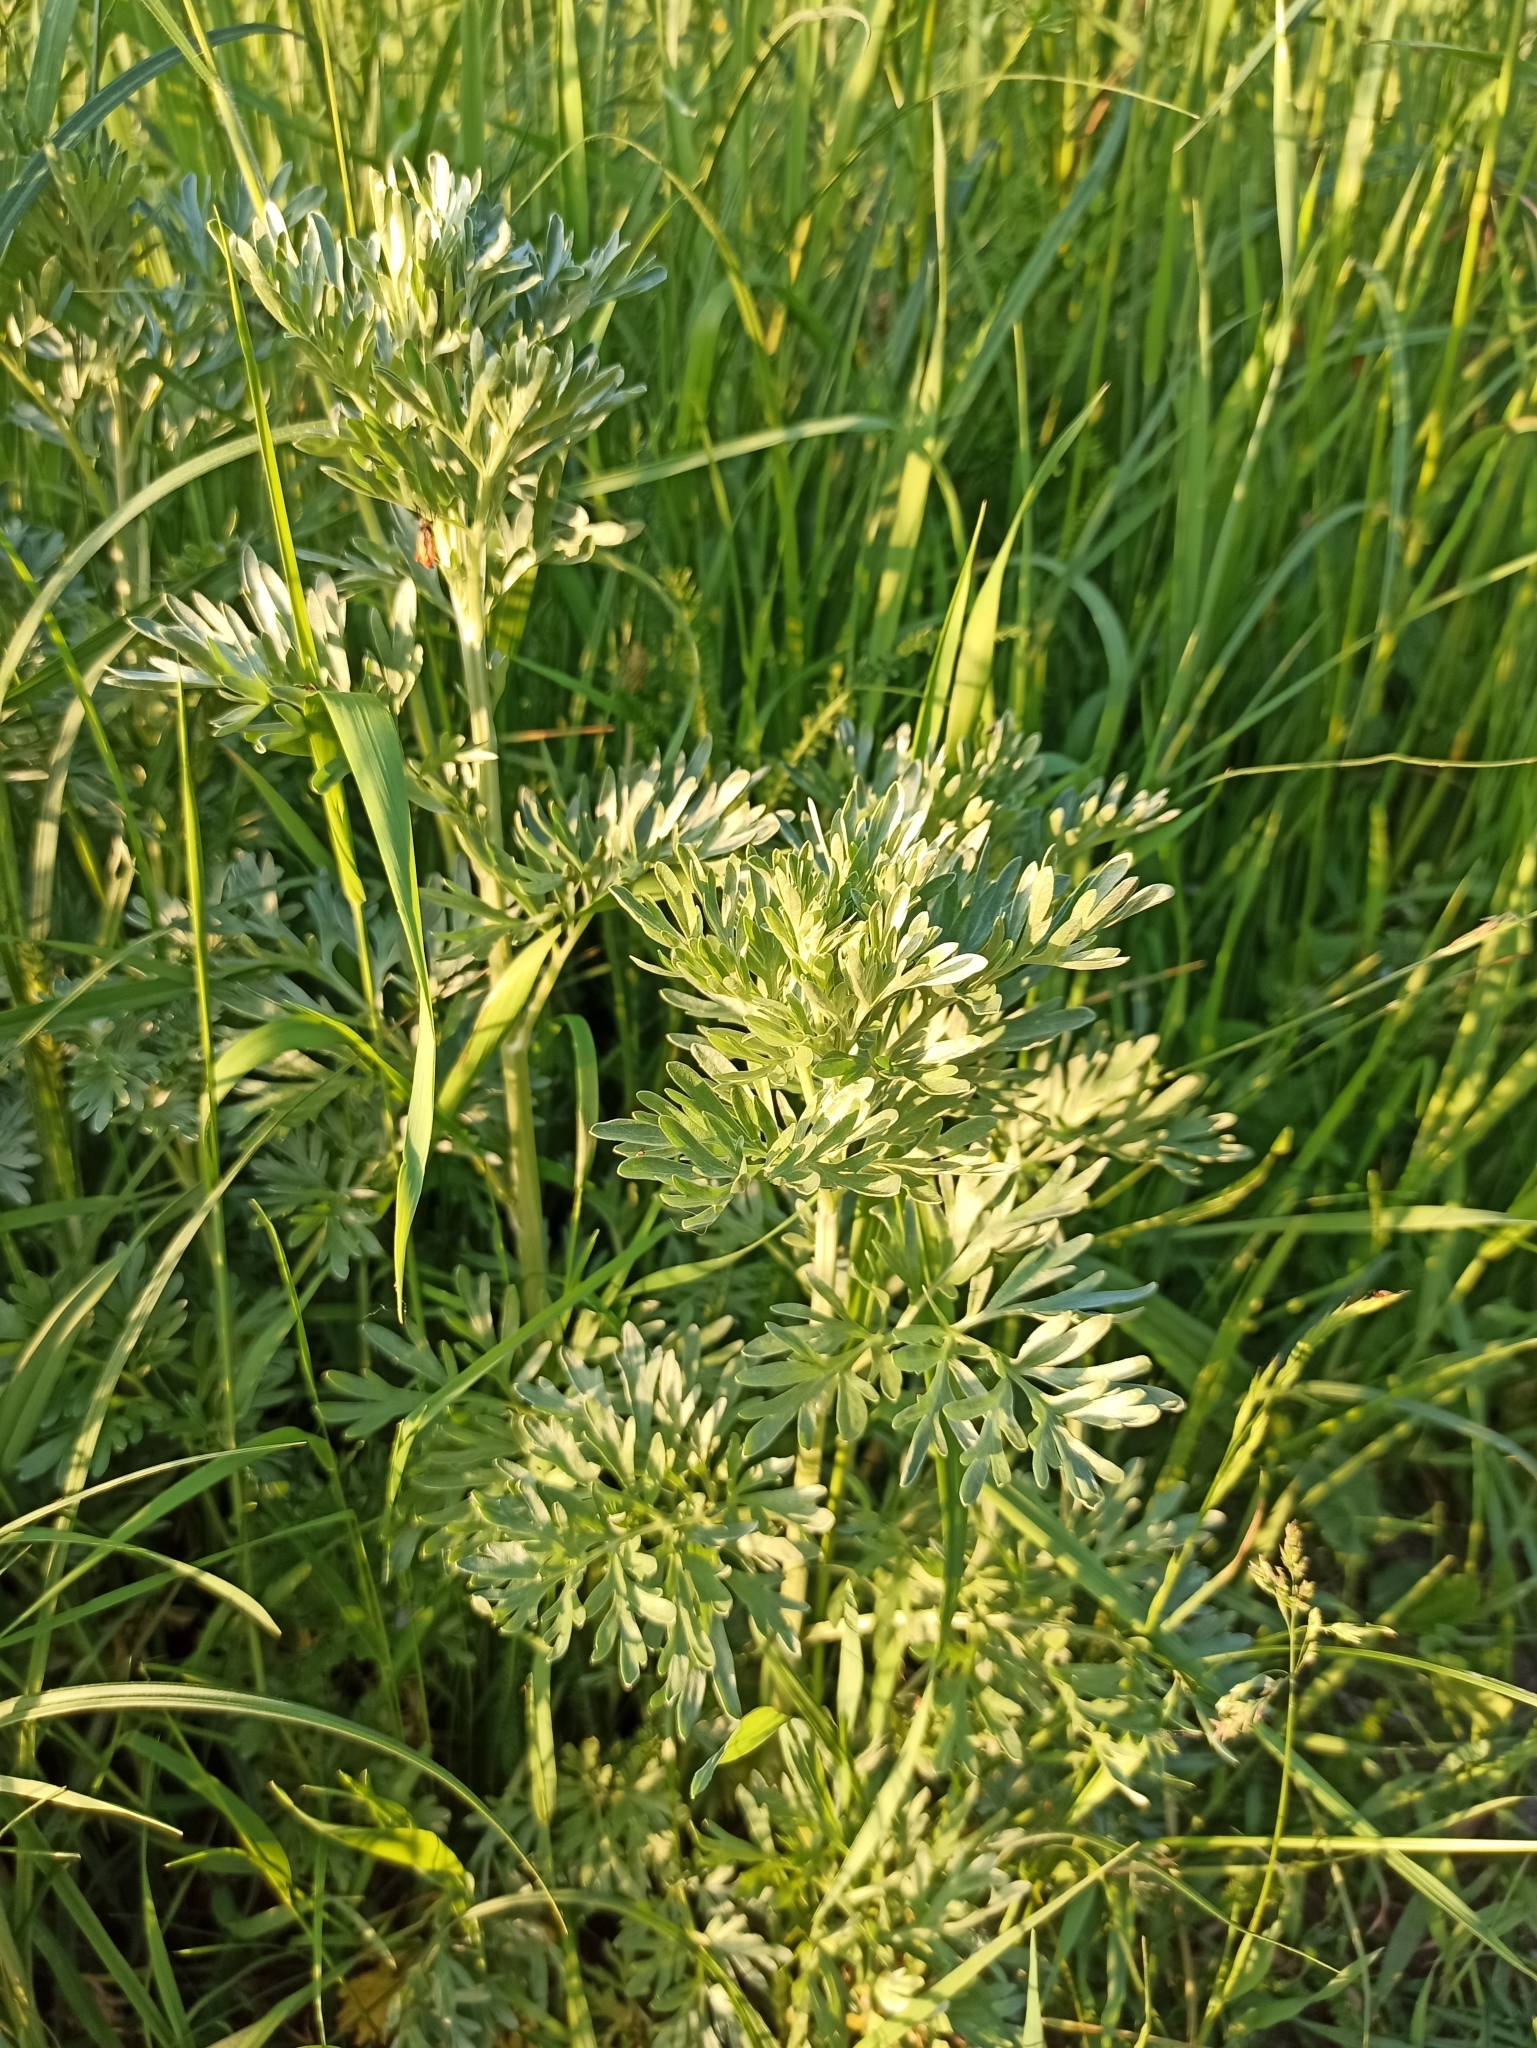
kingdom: Plantae
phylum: Tracheophyta
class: Magnoliopsida
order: Asterales
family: Asteraceae
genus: Artemisia
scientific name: Artemisia absinthium
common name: Wormwood
